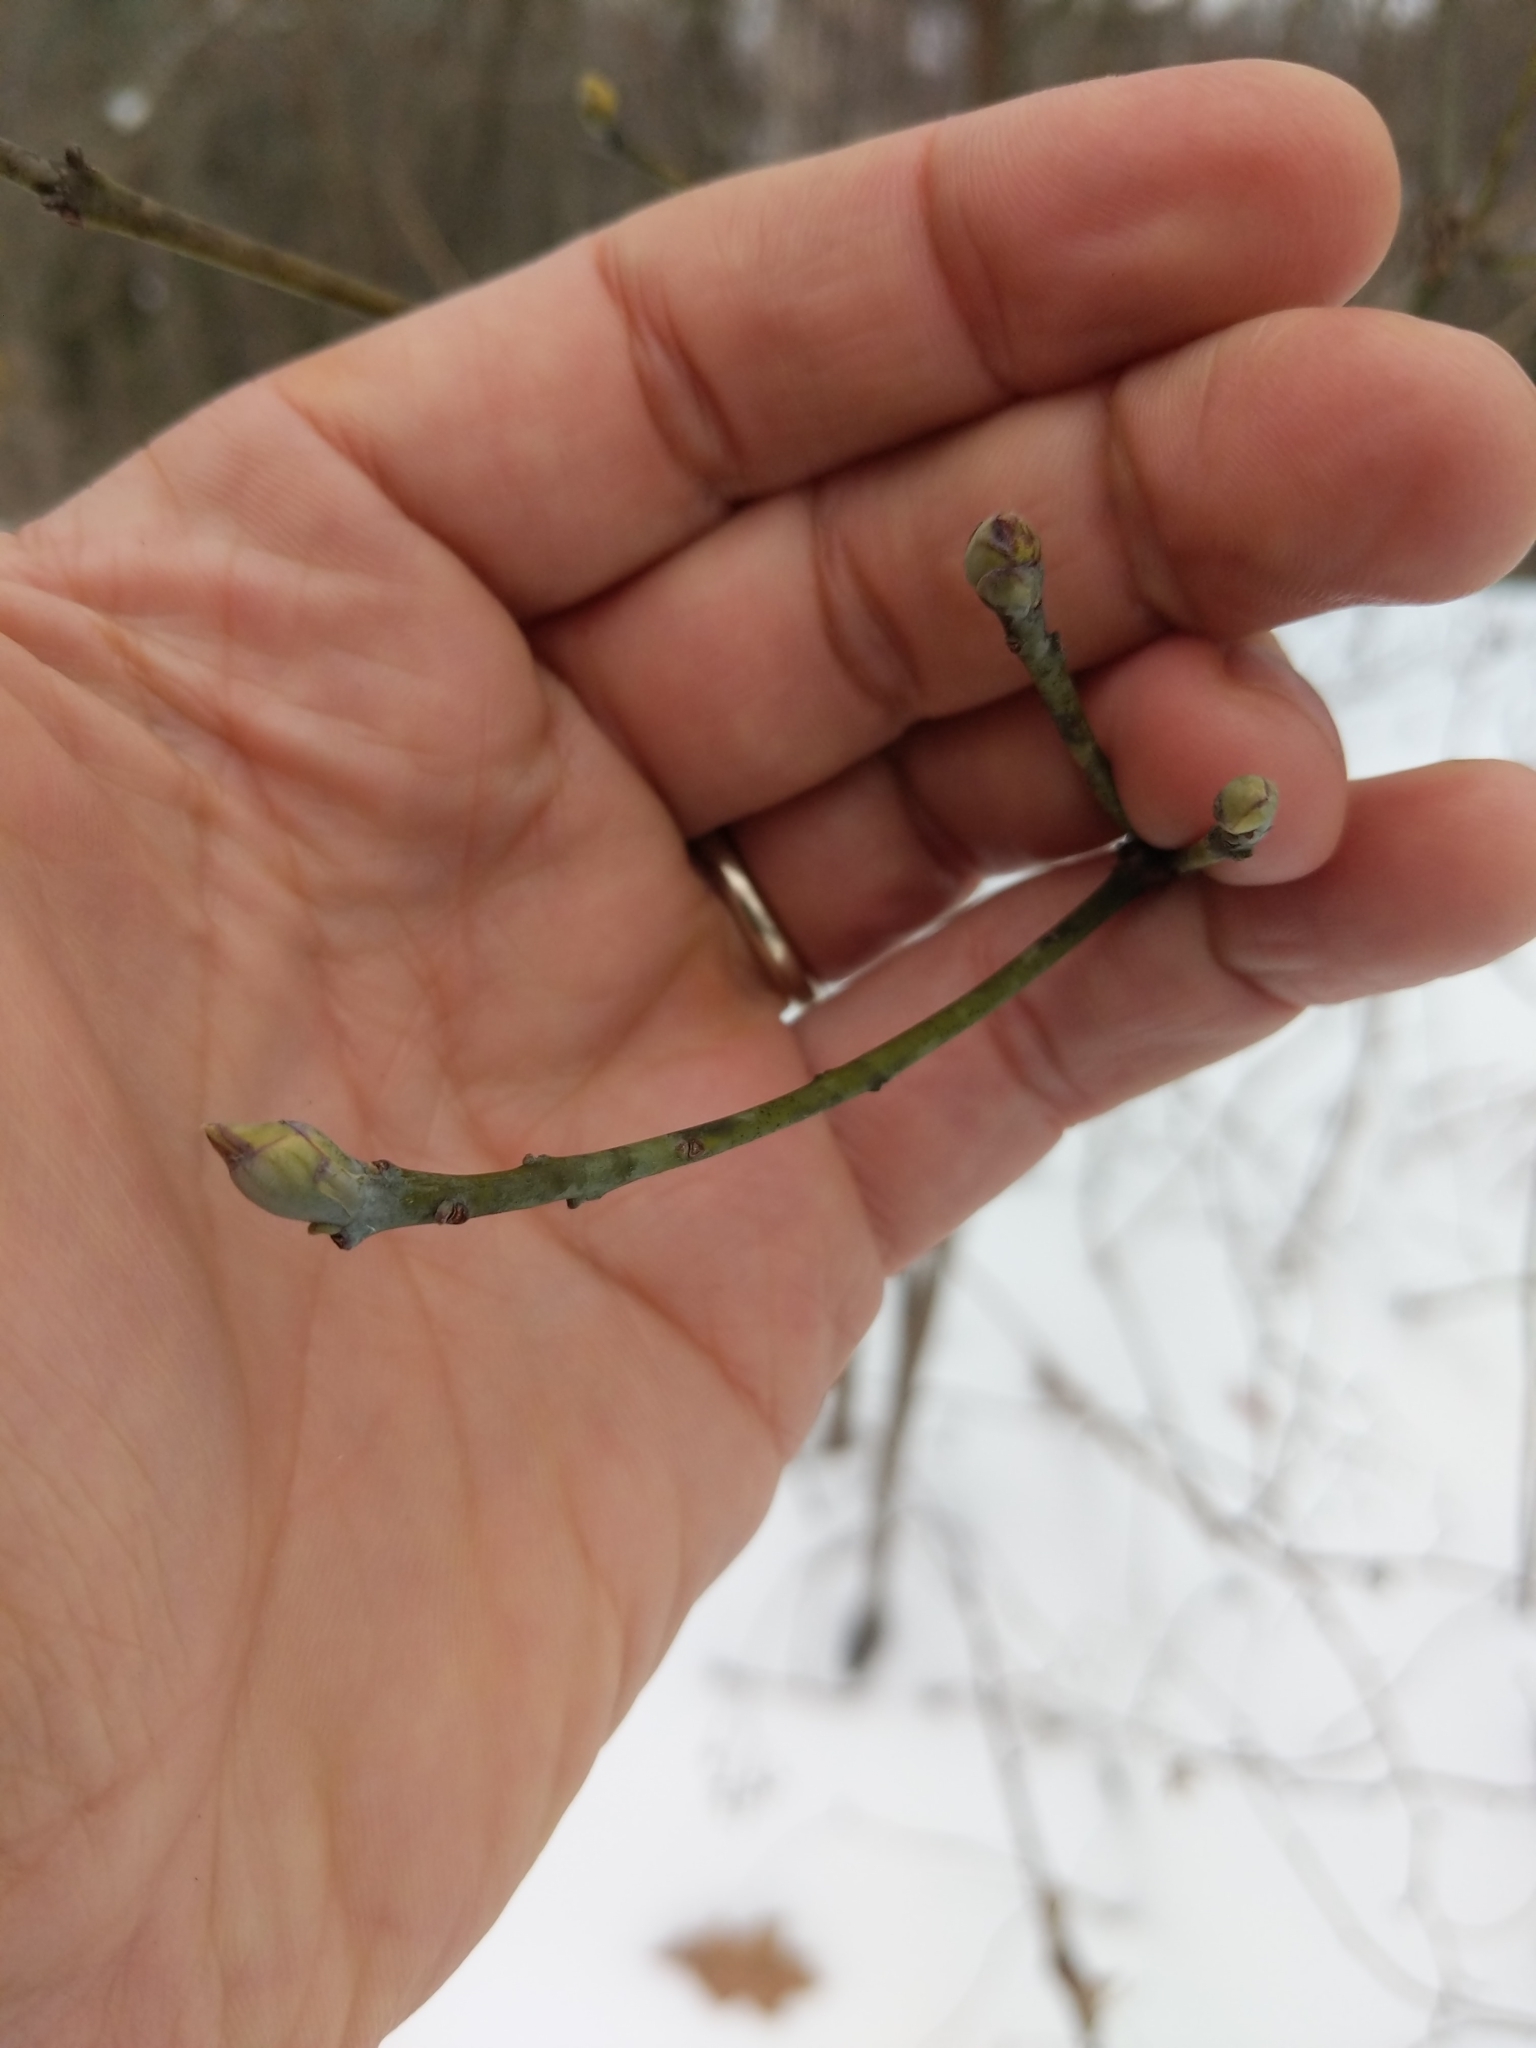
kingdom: Plantae
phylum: Tracheophyta
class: Magnoliopsida
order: Laurales
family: Lauraceae
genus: Sassafras
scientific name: Sassafras albidum
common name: Sassafras
